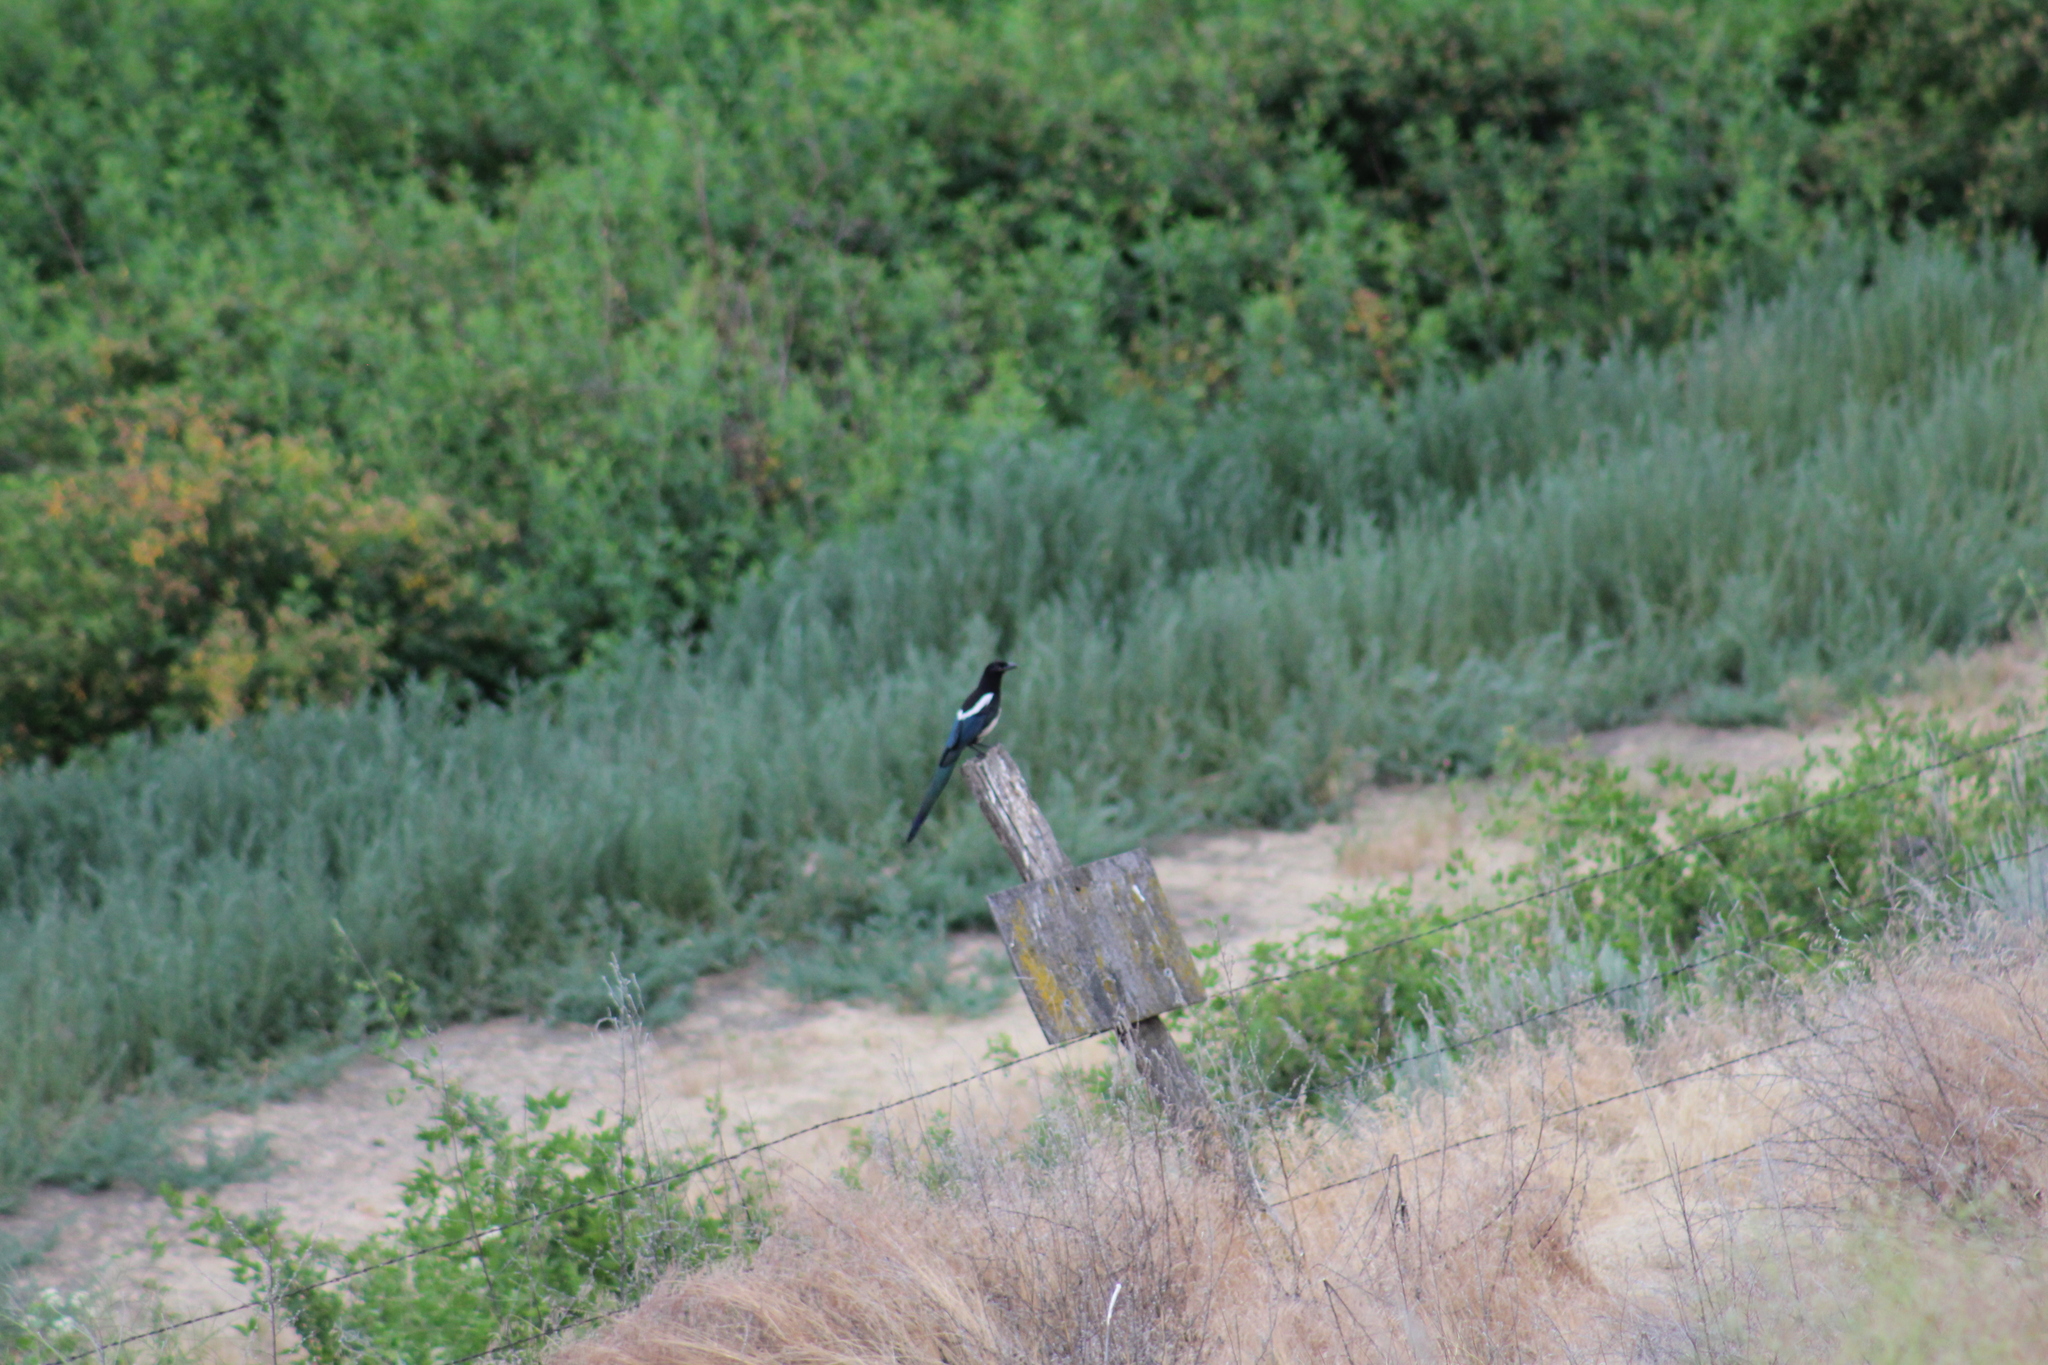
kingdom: Animalia
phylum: Chordata
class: Aves
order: Passeriformes
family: Corvidae
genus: Pica
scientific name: Pica hudsonia
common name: Black-billed magpie
